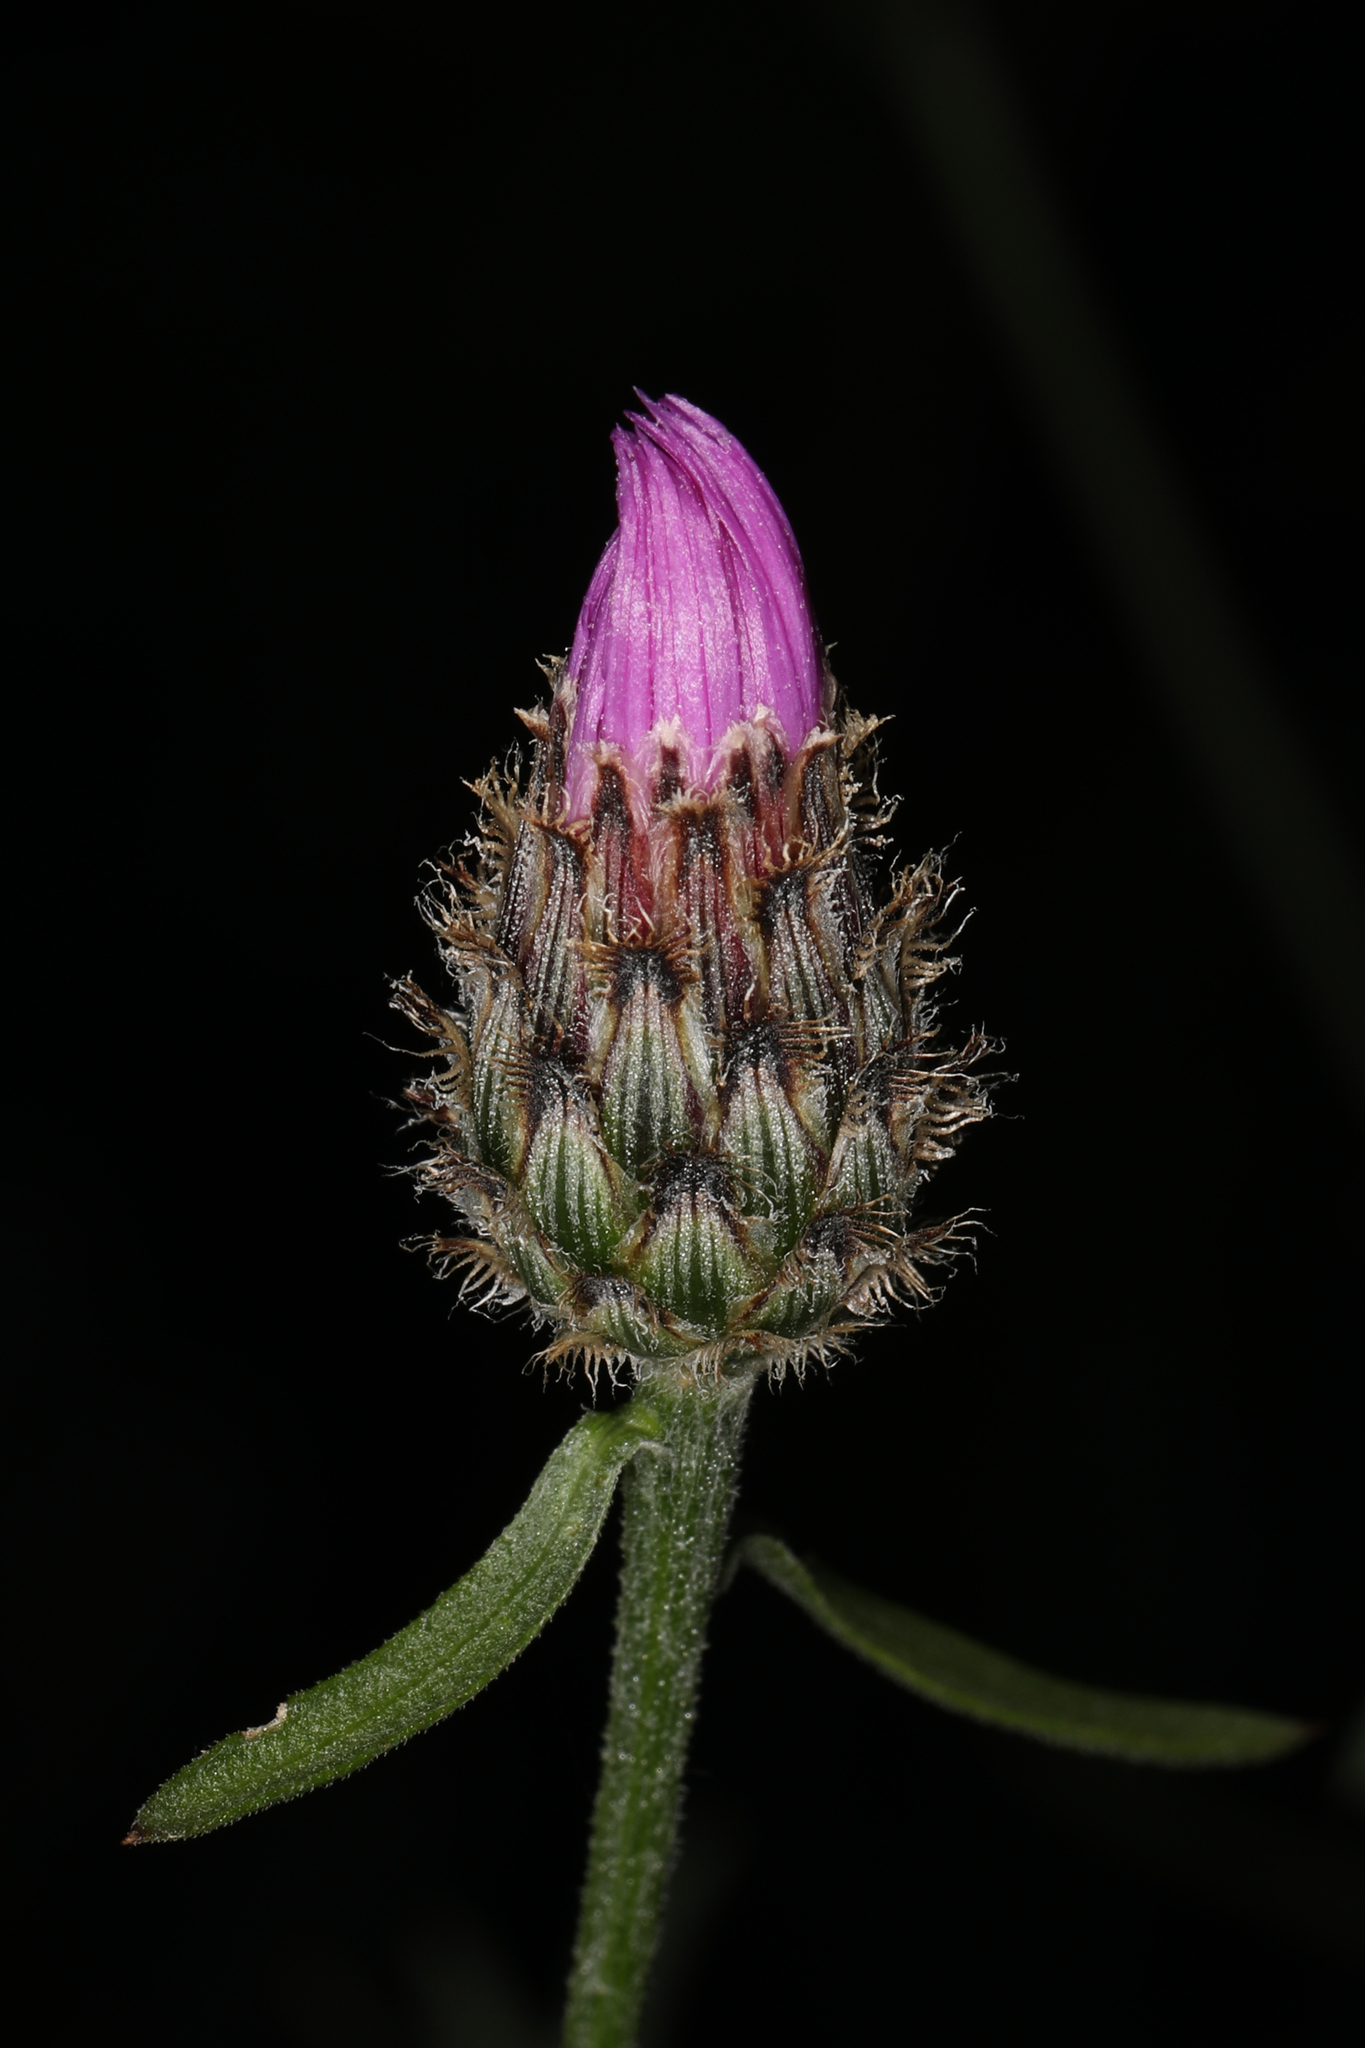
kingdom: Plantae
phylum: Tracheophyta
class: Magnoliopsida
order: Asterales
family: Asteraceae
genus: Centaurea
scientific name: Centaurea stoebe
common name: Spotted knapweed
